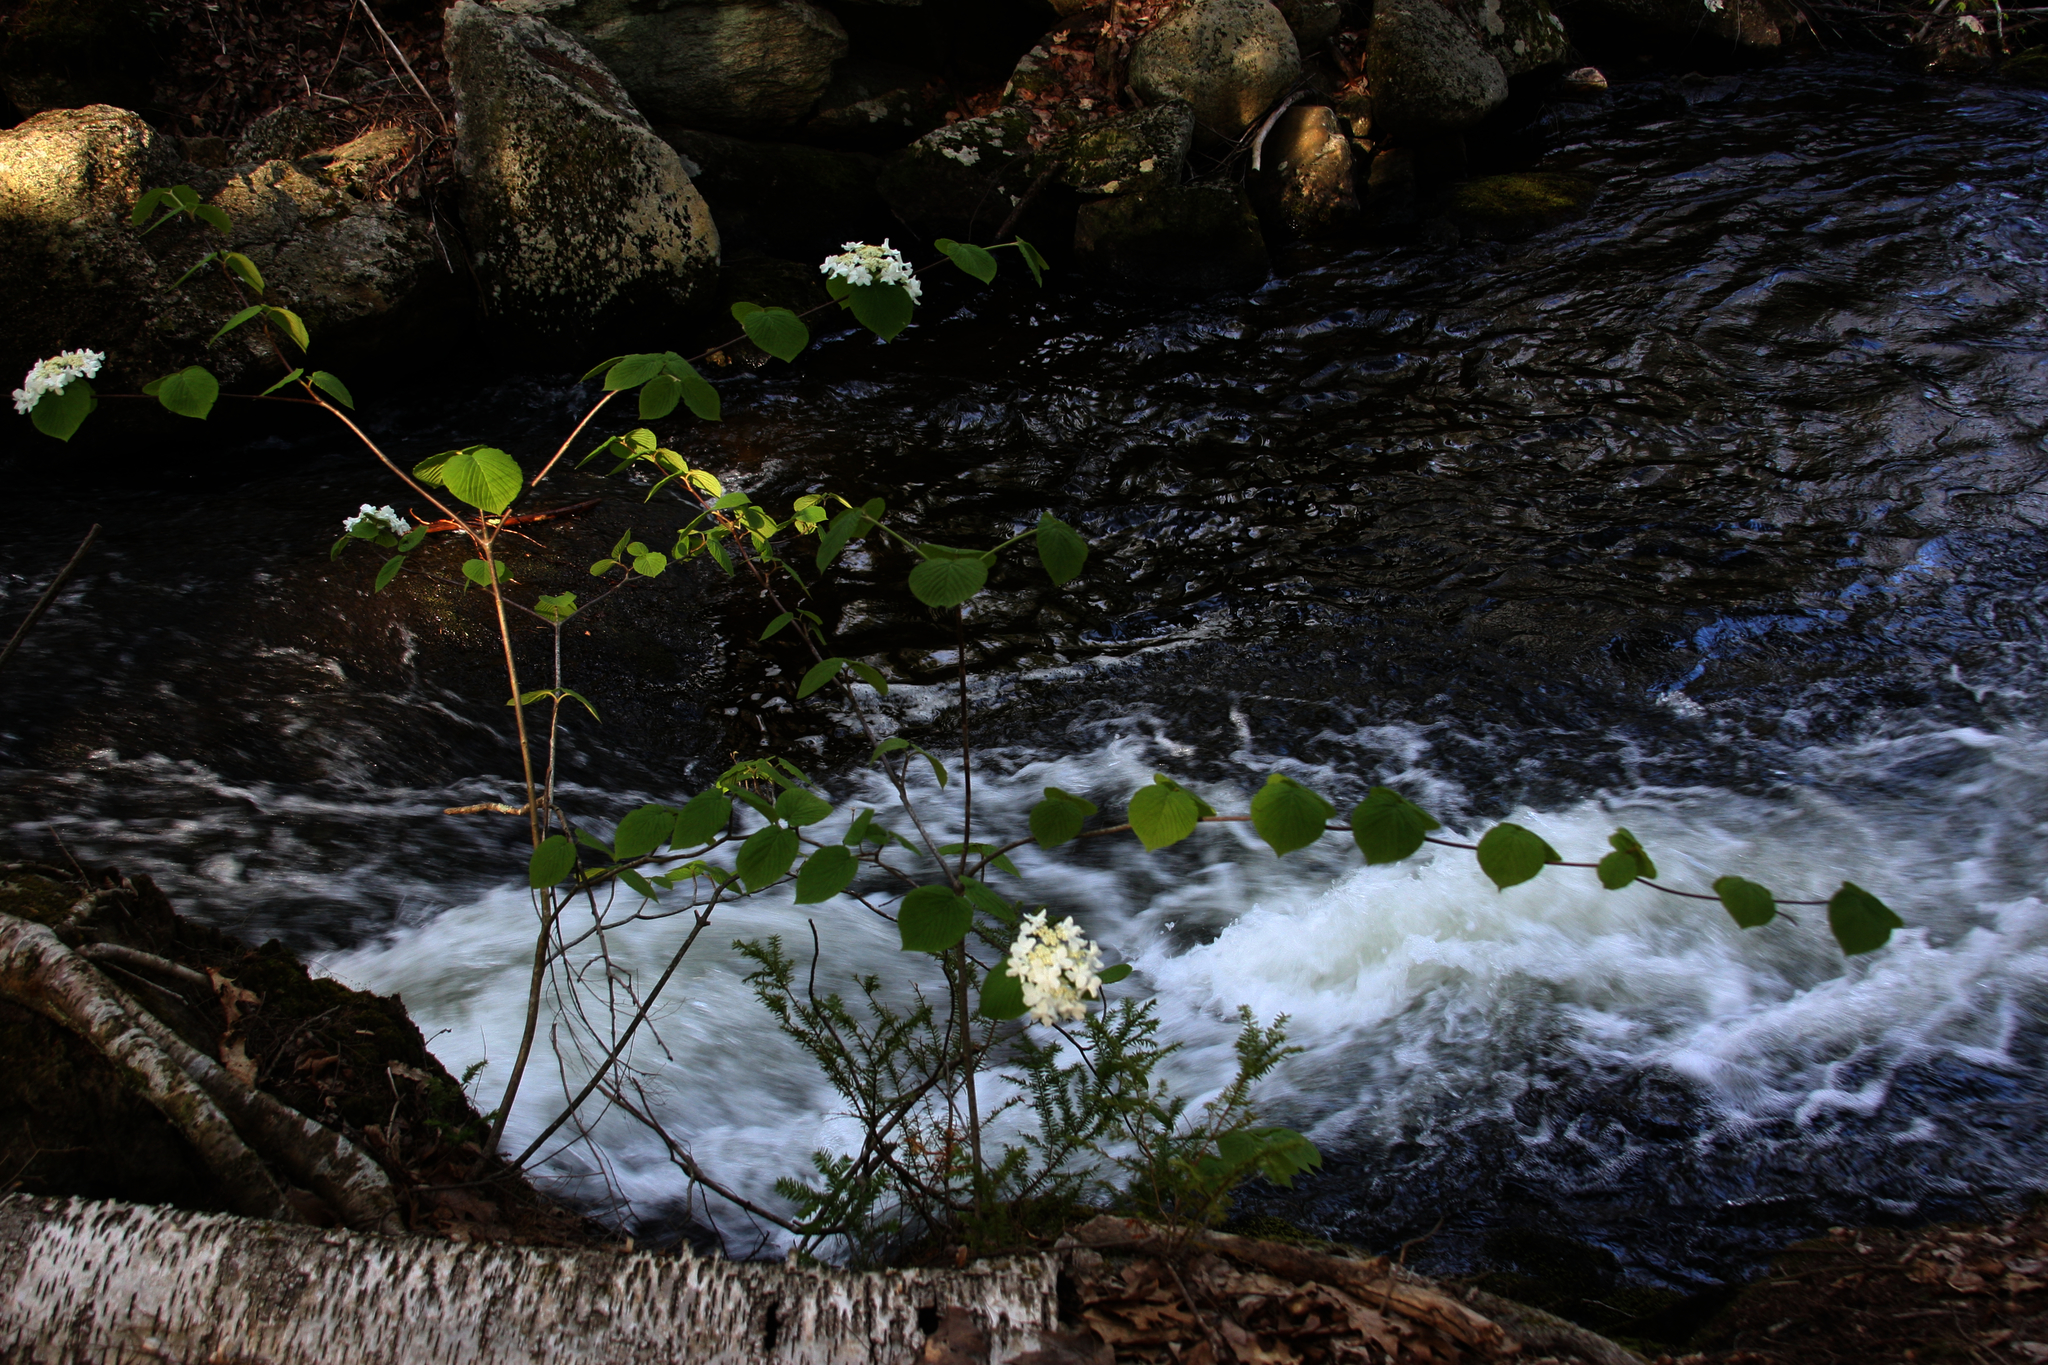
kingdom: Plantae
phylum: Tracheophyta
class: Magnoliopsida
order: Dipsacales
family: Viburnaceae
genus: Viburnum
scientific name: Viburnum lantanoides
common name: Hobblebush
